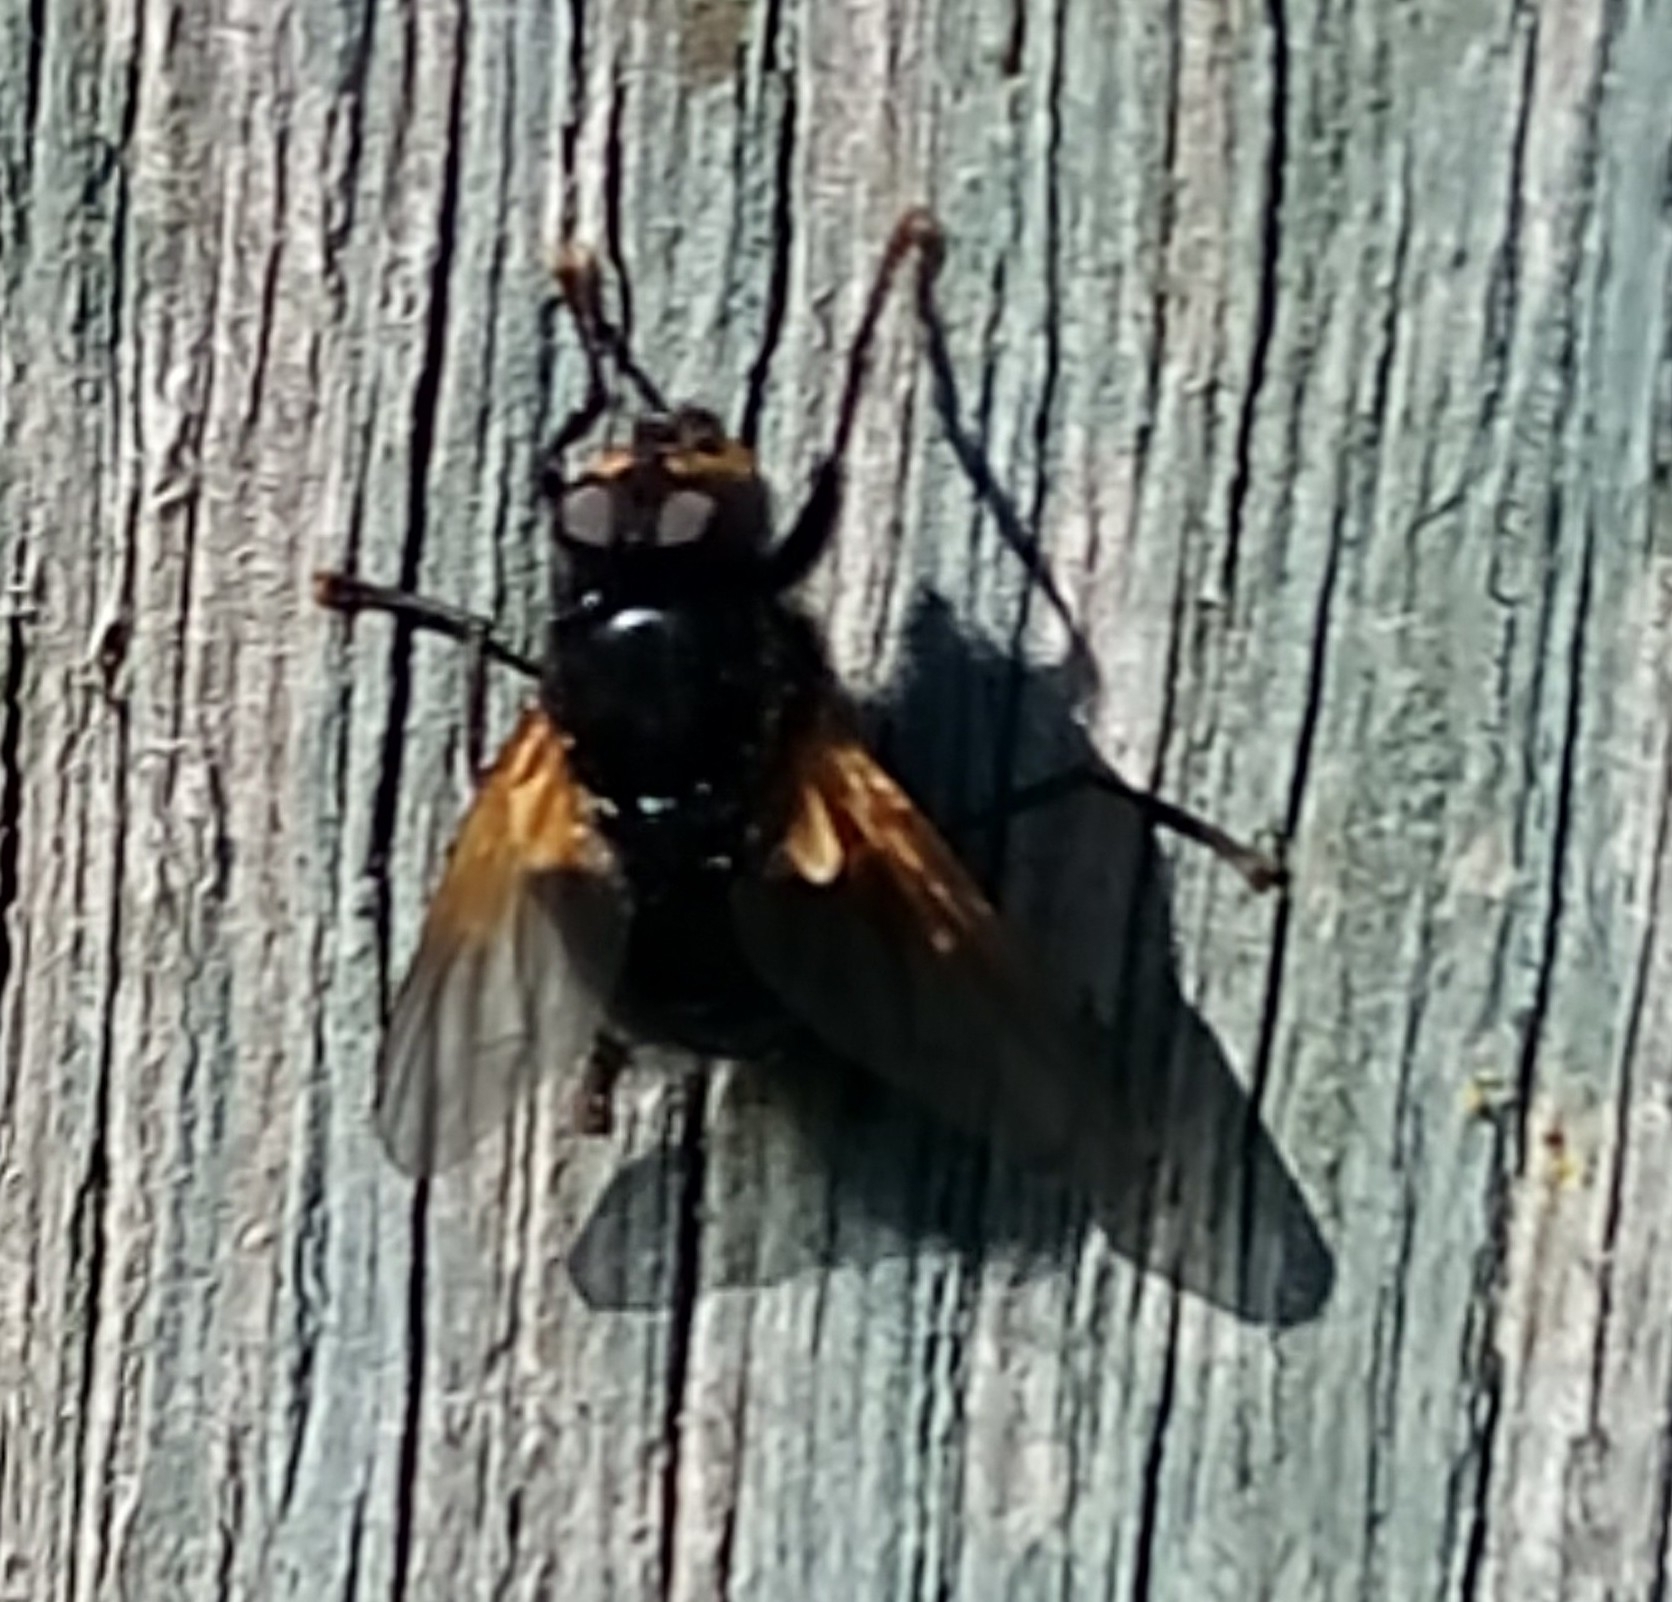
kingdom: Animalia
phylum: Arthropoda
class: Insecta
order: Diptera
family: Muscidae
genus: Mesembrina
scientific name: Mesembrina meridiana
